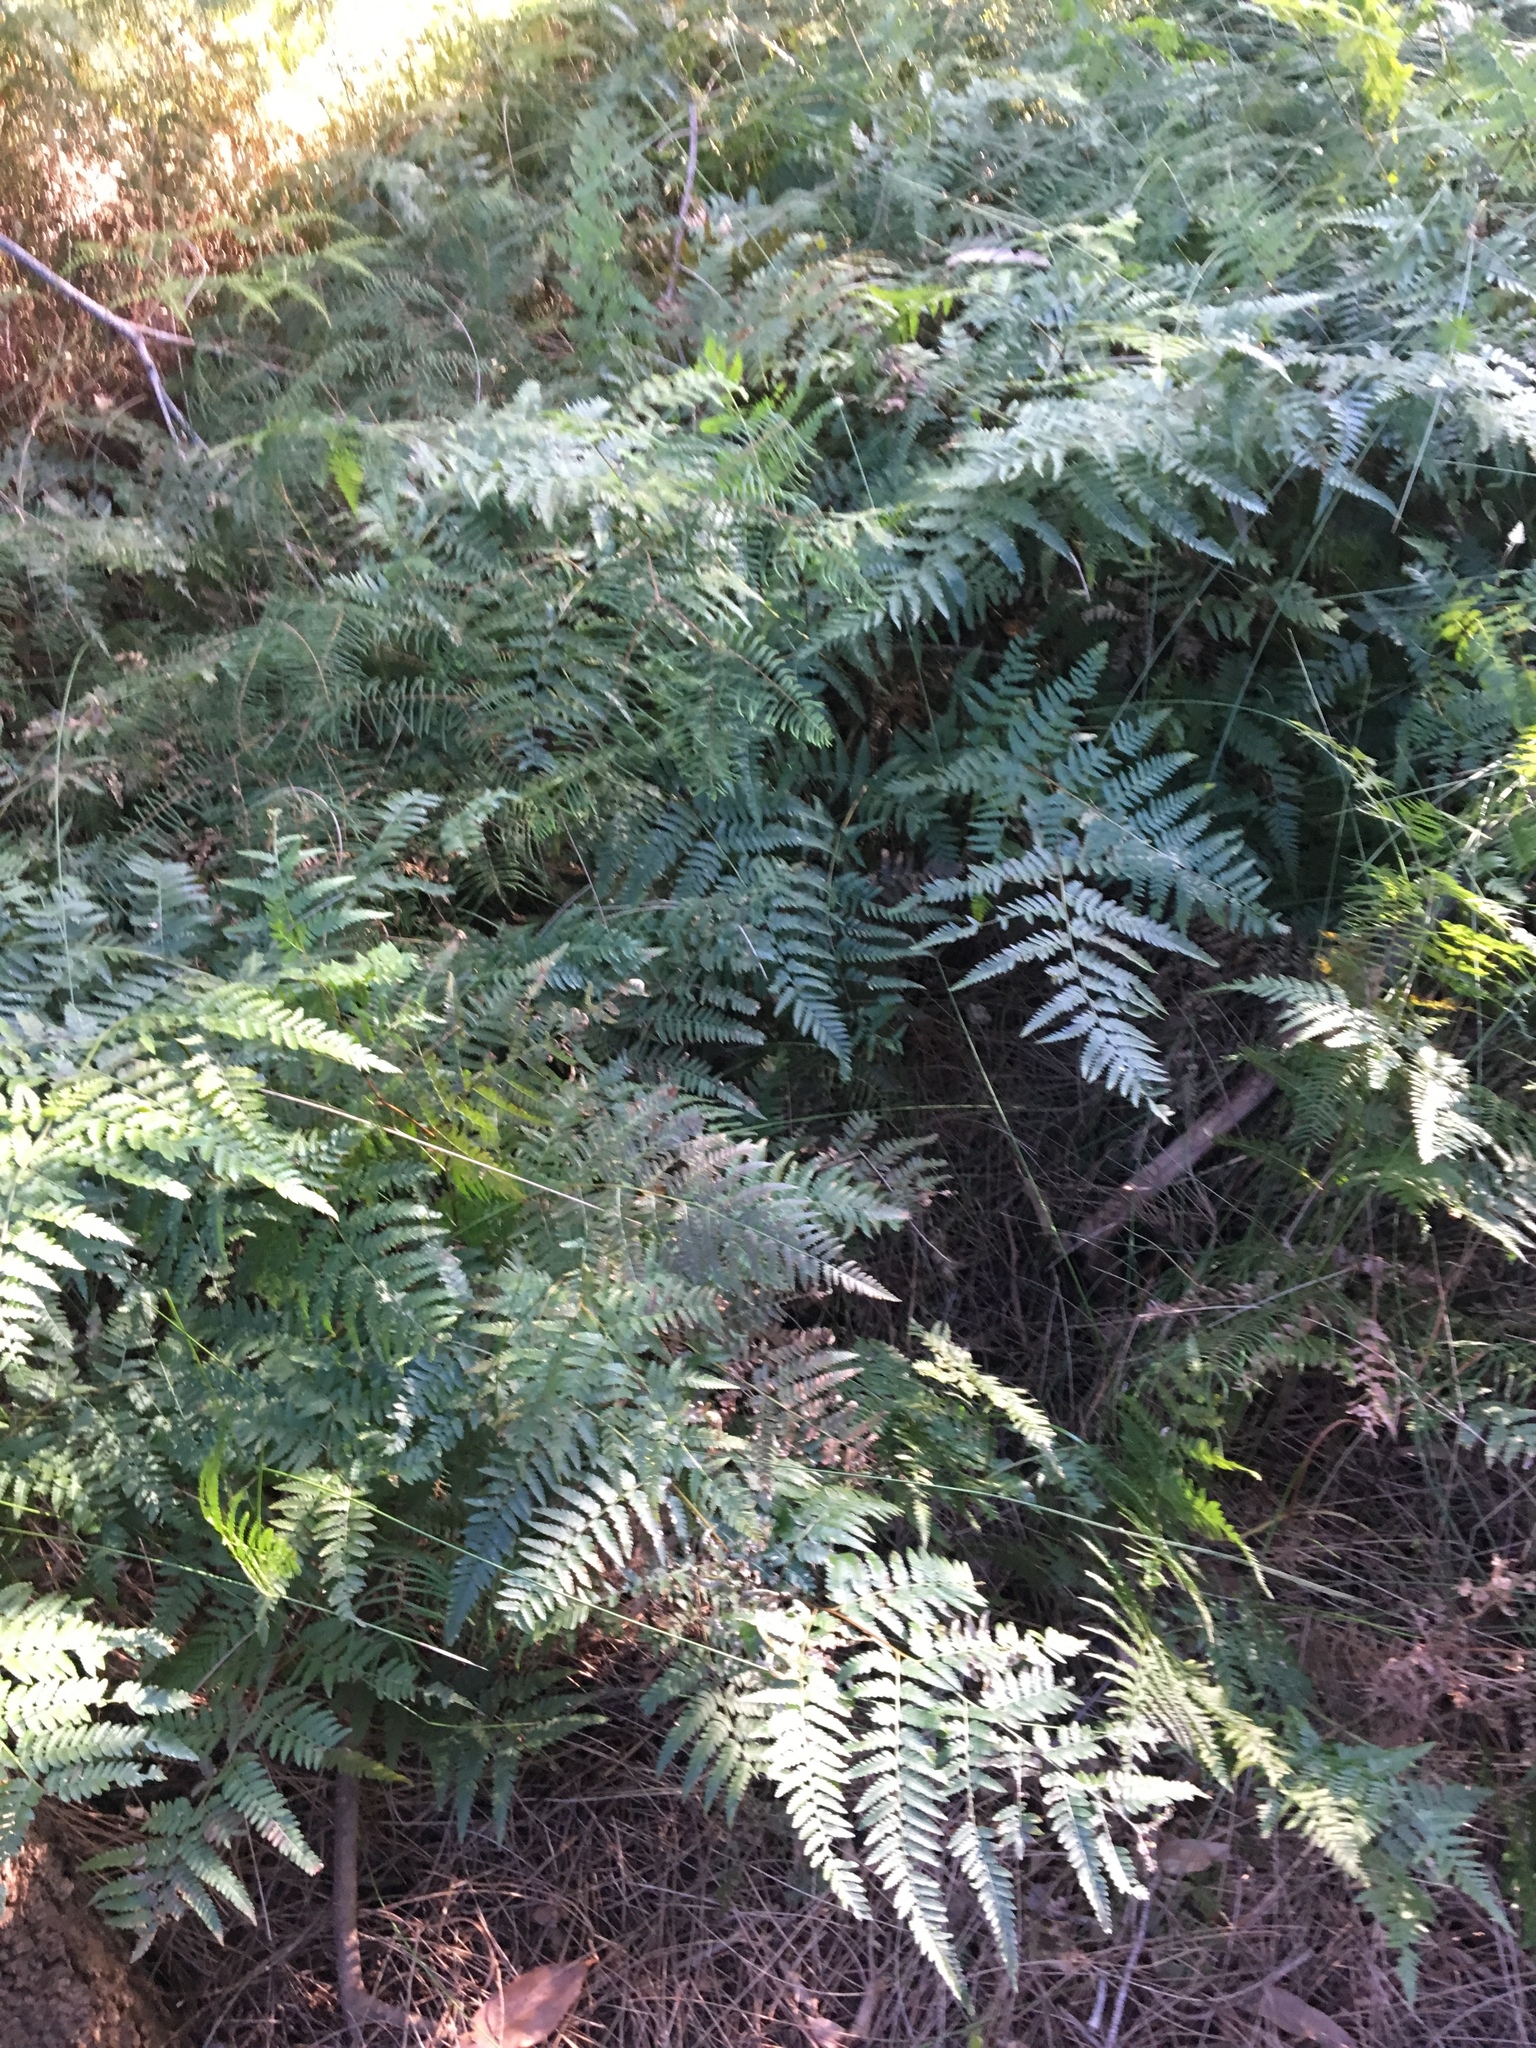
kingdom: Plantae
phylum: Tracheophyta
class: Polypodiopsida
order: Cyatheales
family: Dicksoniaceae
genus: Calochlaena
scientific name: Calochlaena dubia
